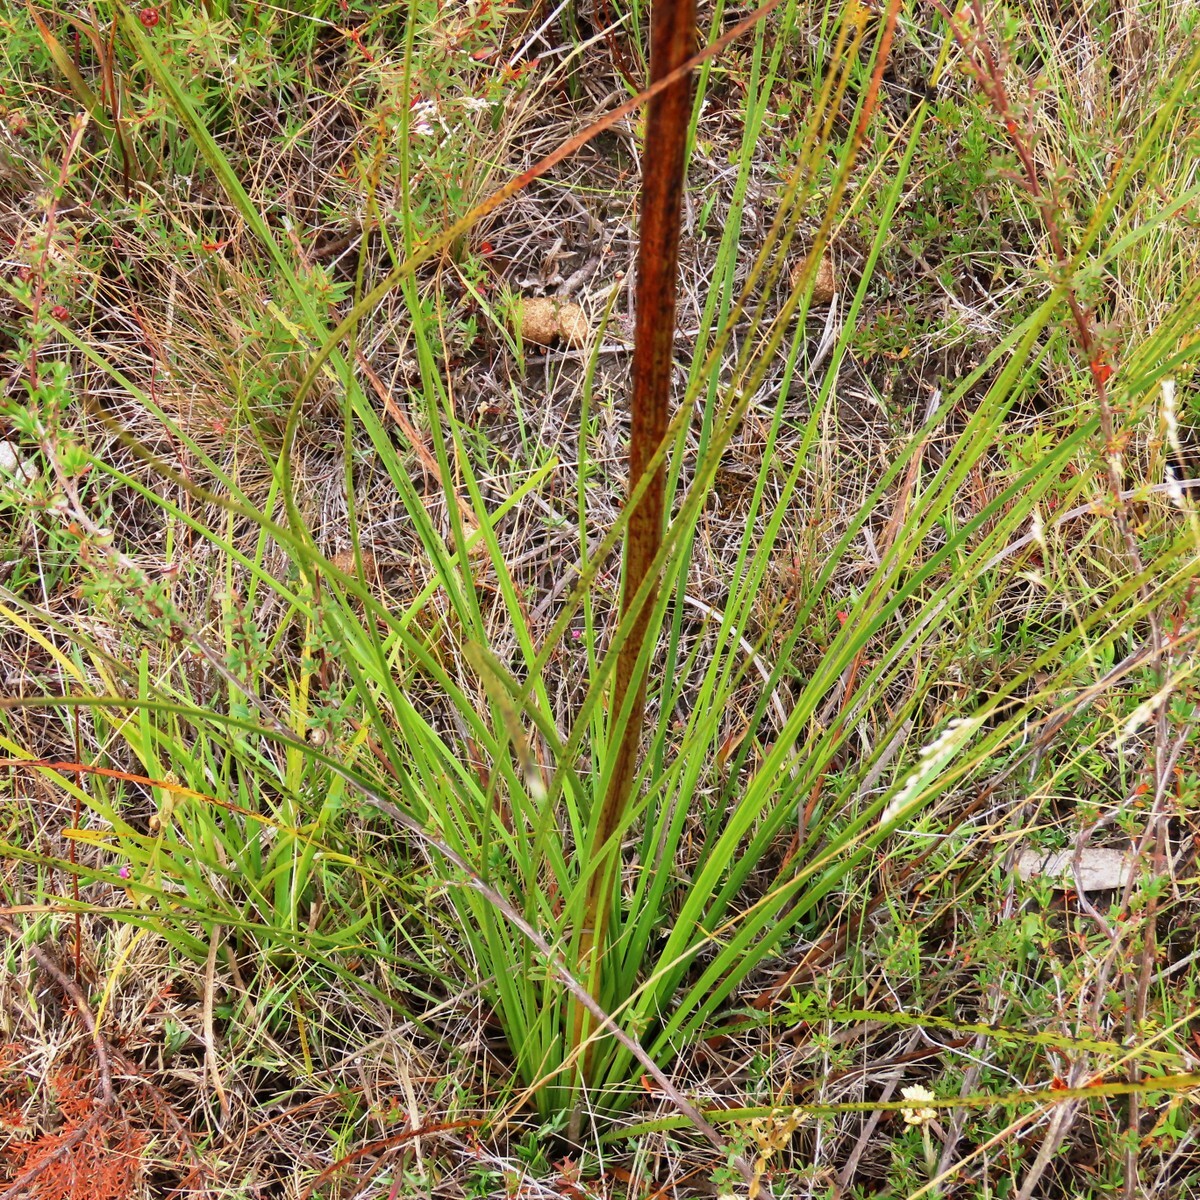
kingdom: Plantae
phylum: Tracheophyta
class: Liliopsida
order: Asparagales
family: Asphodelaceae
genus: Xanthorrhoea
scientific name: Xanthorrhoea minor
